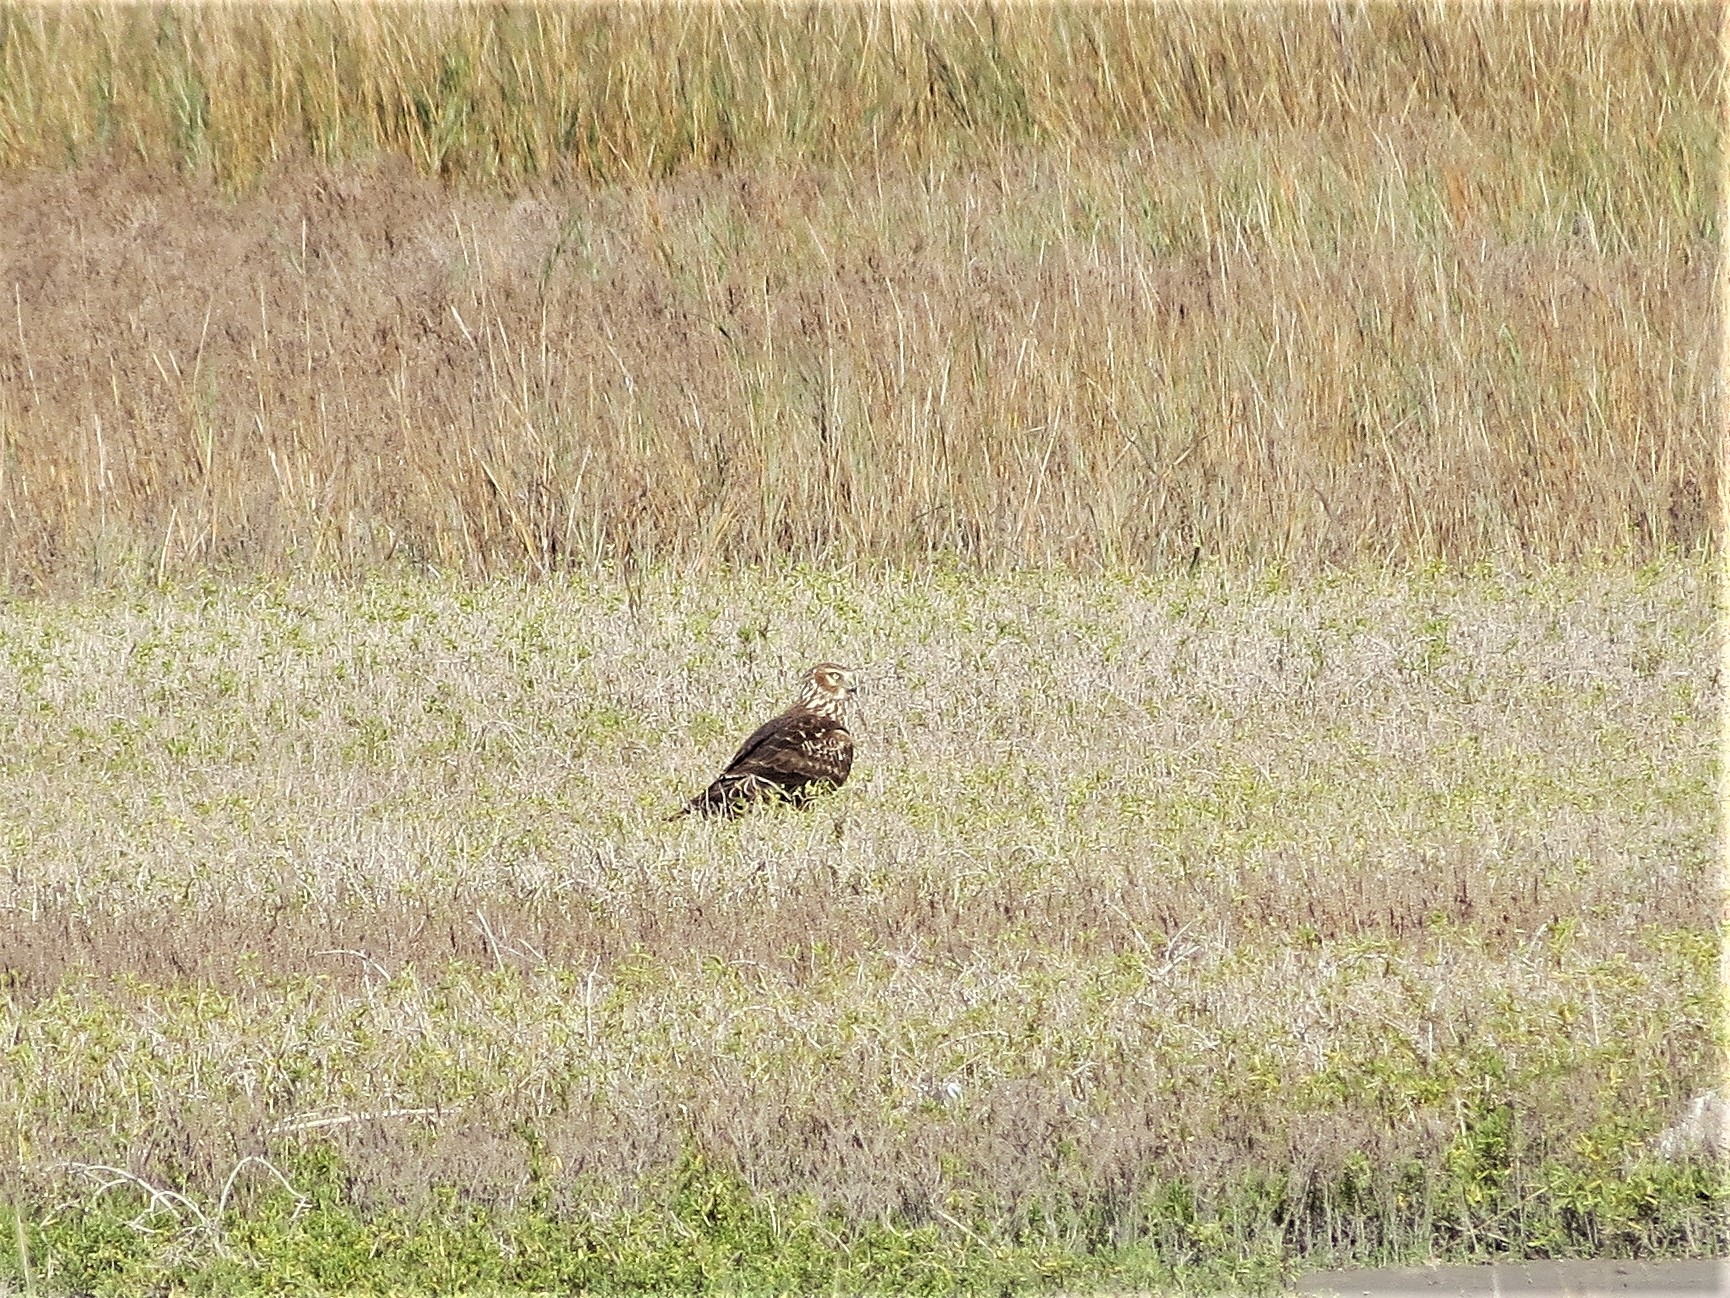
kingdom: Animalia
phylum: Chordata
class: Aves
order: Accipitriformes
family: Accipitridae
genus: Circus
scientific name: Circus cyaneus
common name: Hen harrier
